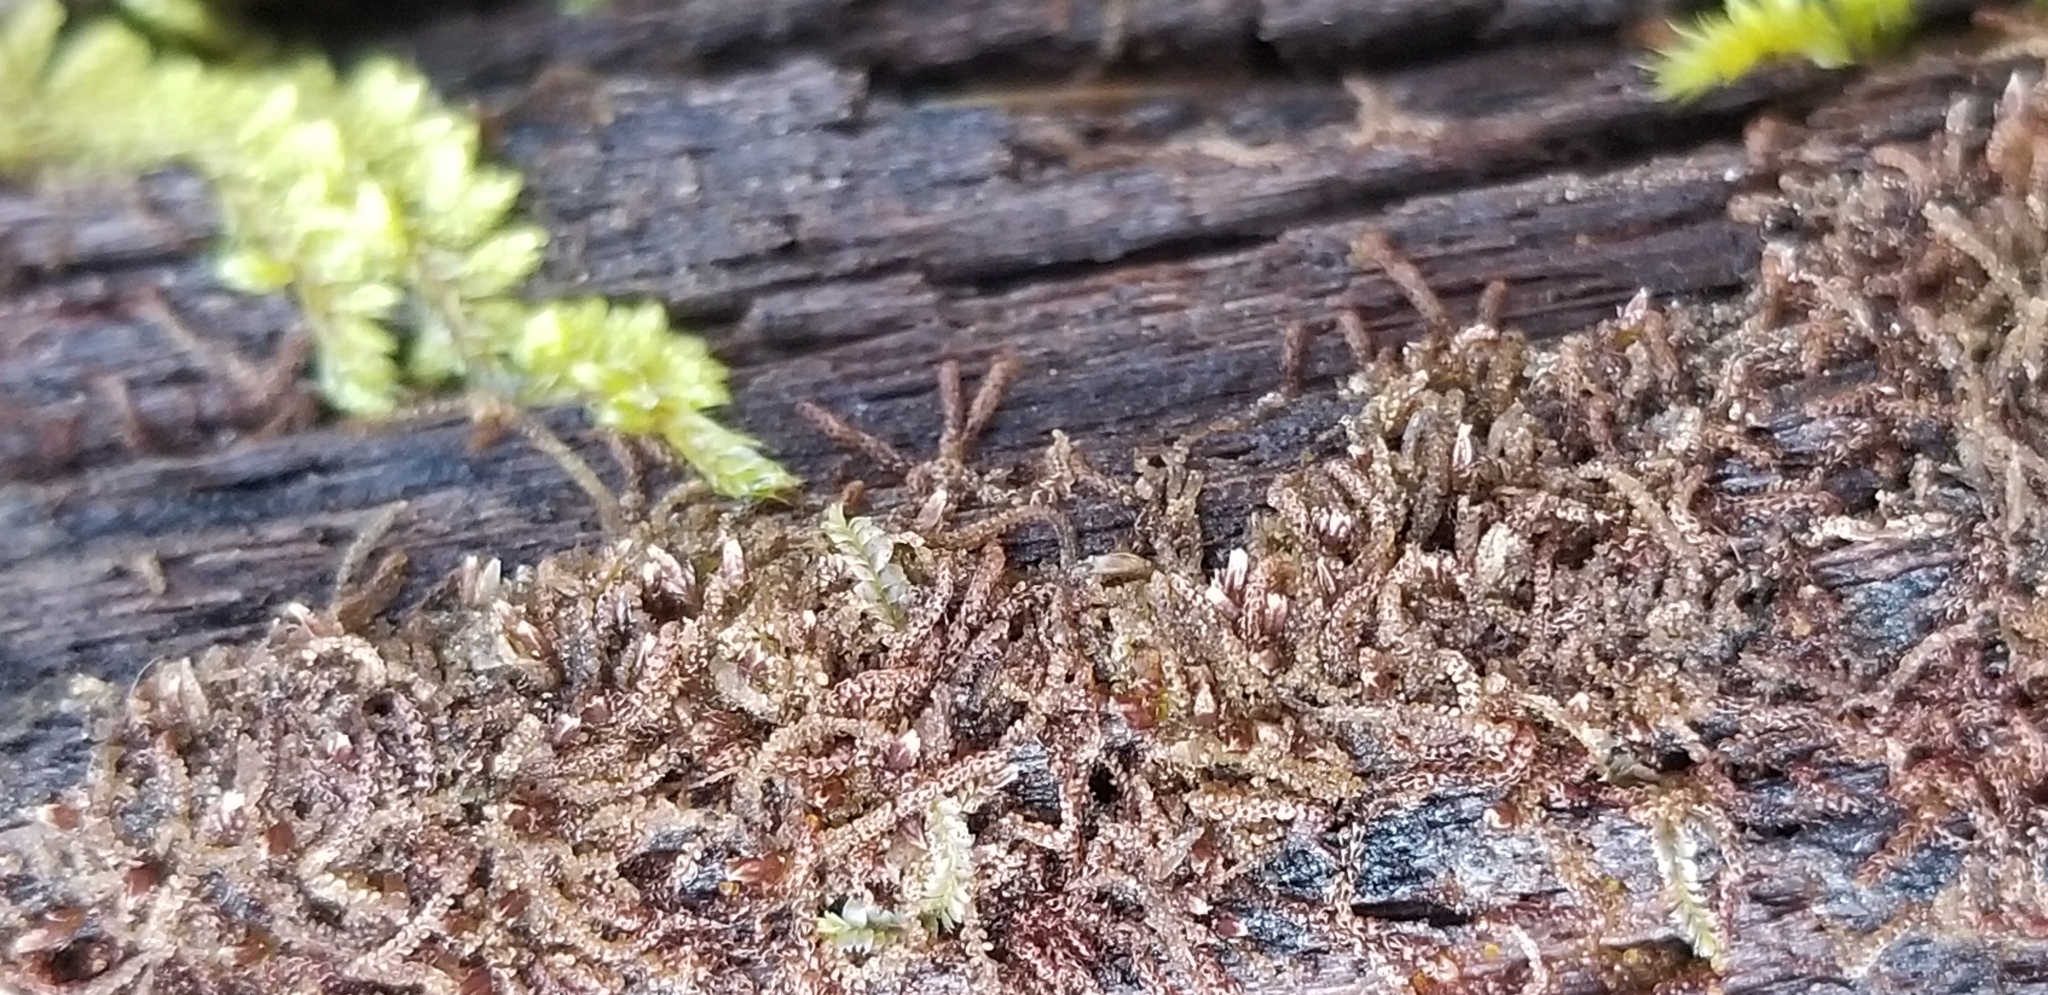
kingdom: Plantae
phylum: Marchantiophyta
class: Jungermanniopsida
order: Jungermanniales
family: Cephaloziaceae
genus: Nowellia
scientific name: Nowellia curvifolia
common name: Wood rustwort
